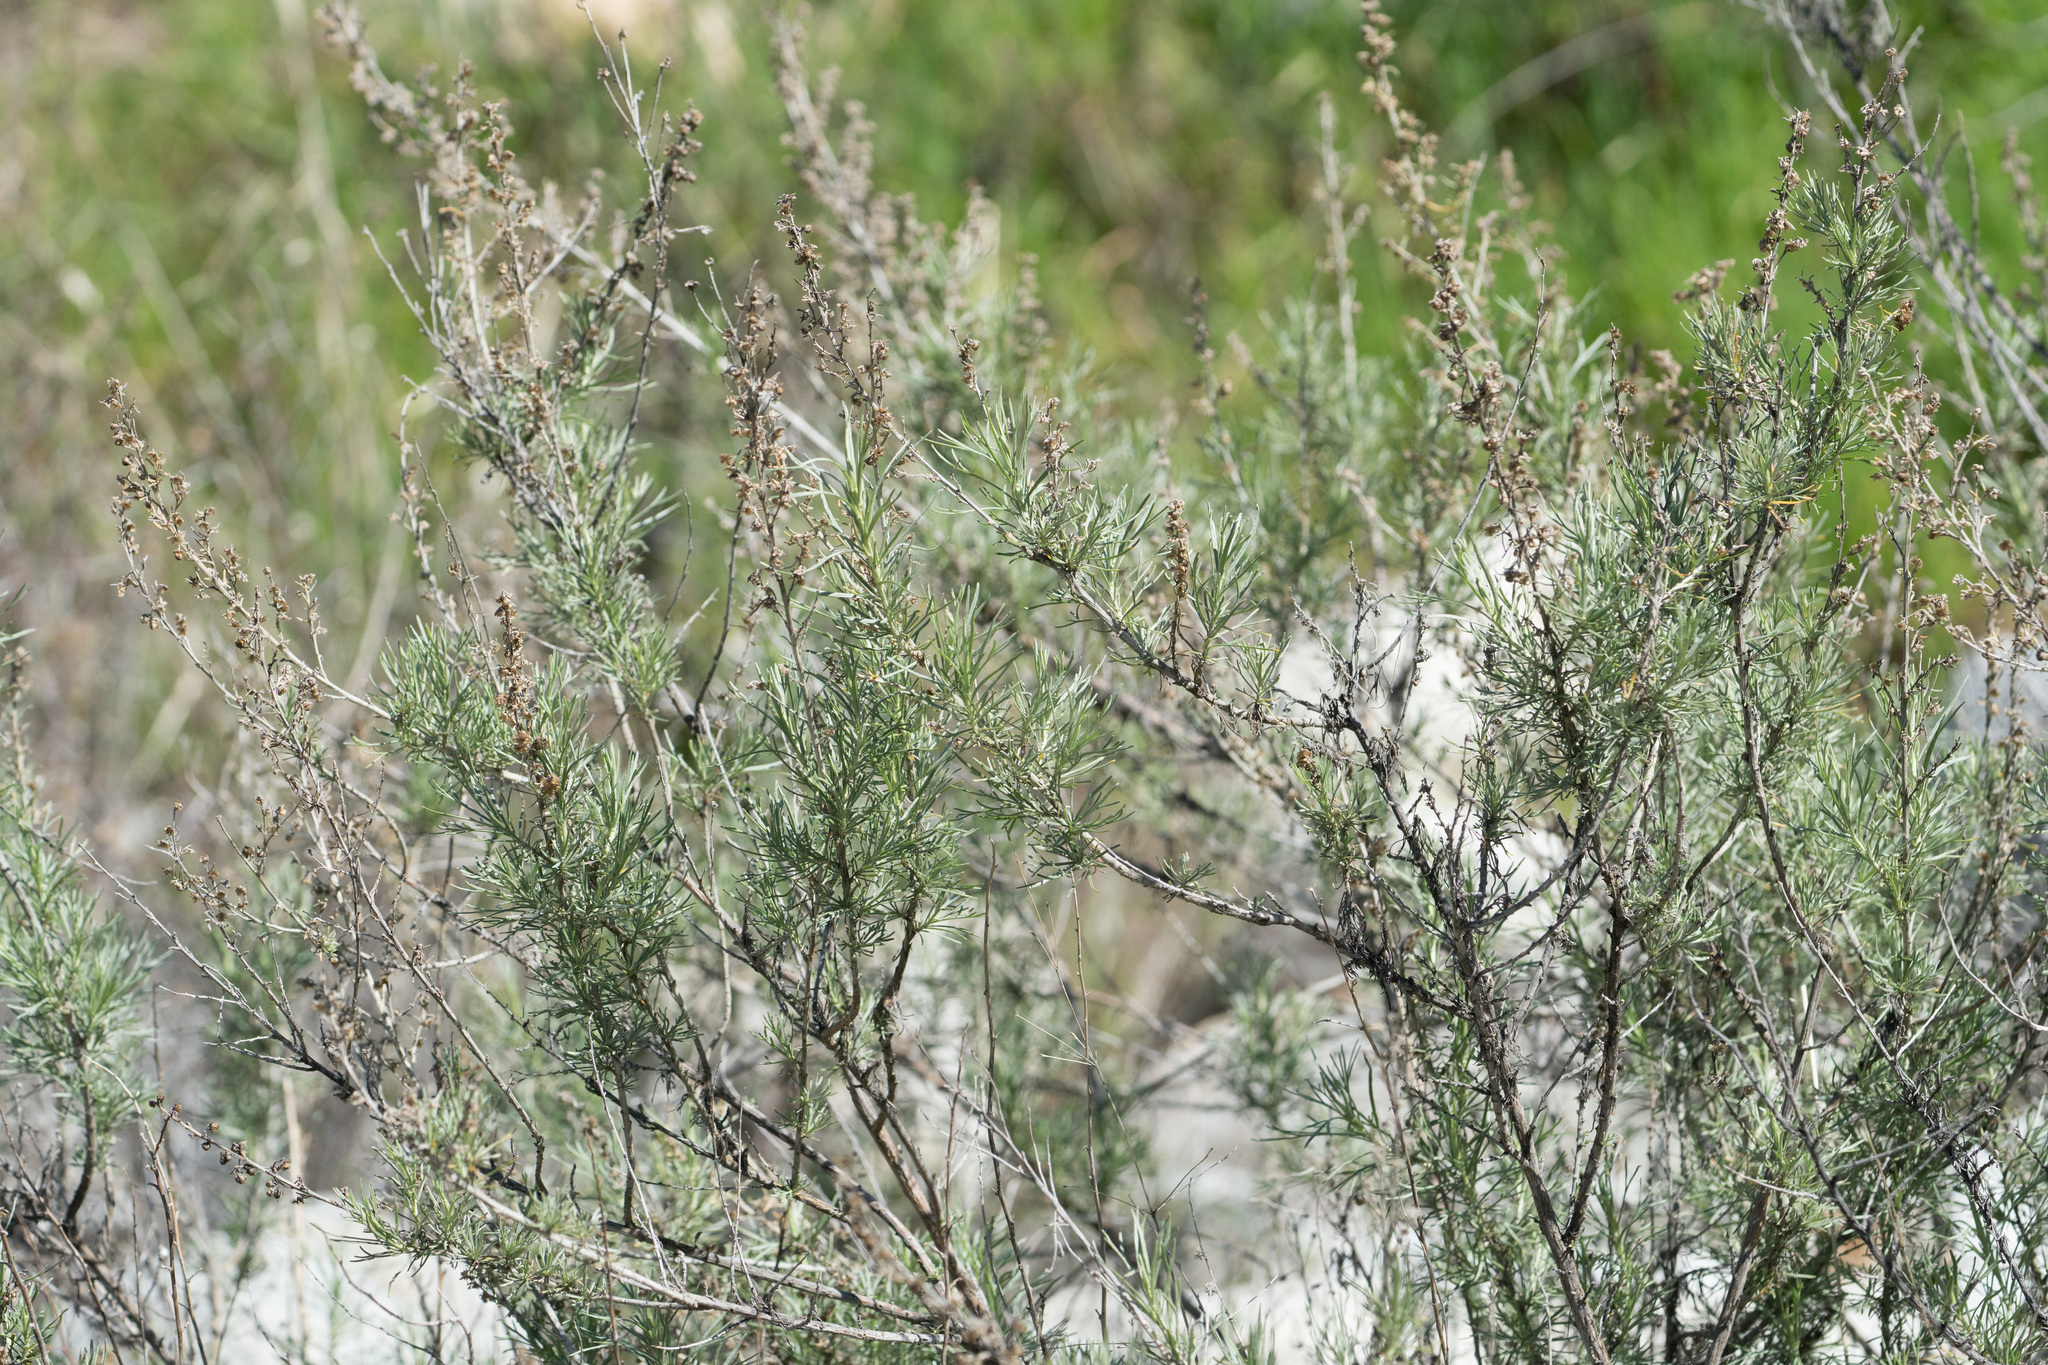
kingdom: Plantae
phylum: Tracheophyta
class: Magnoliopsida
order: Asterales
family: Asteraceae
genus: Artemisia
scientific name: Artemisia californica
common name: California sagebrush
